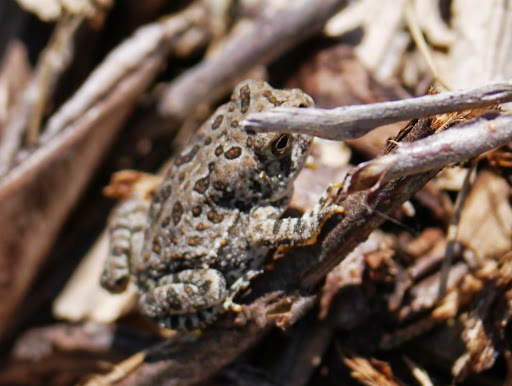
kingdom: Animalia
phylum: Chordata
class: Amphibia
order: Anura
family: Bufonidae
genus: Anaxyrus
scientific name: Anaxyrus fowleri
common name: Fowler's toad
